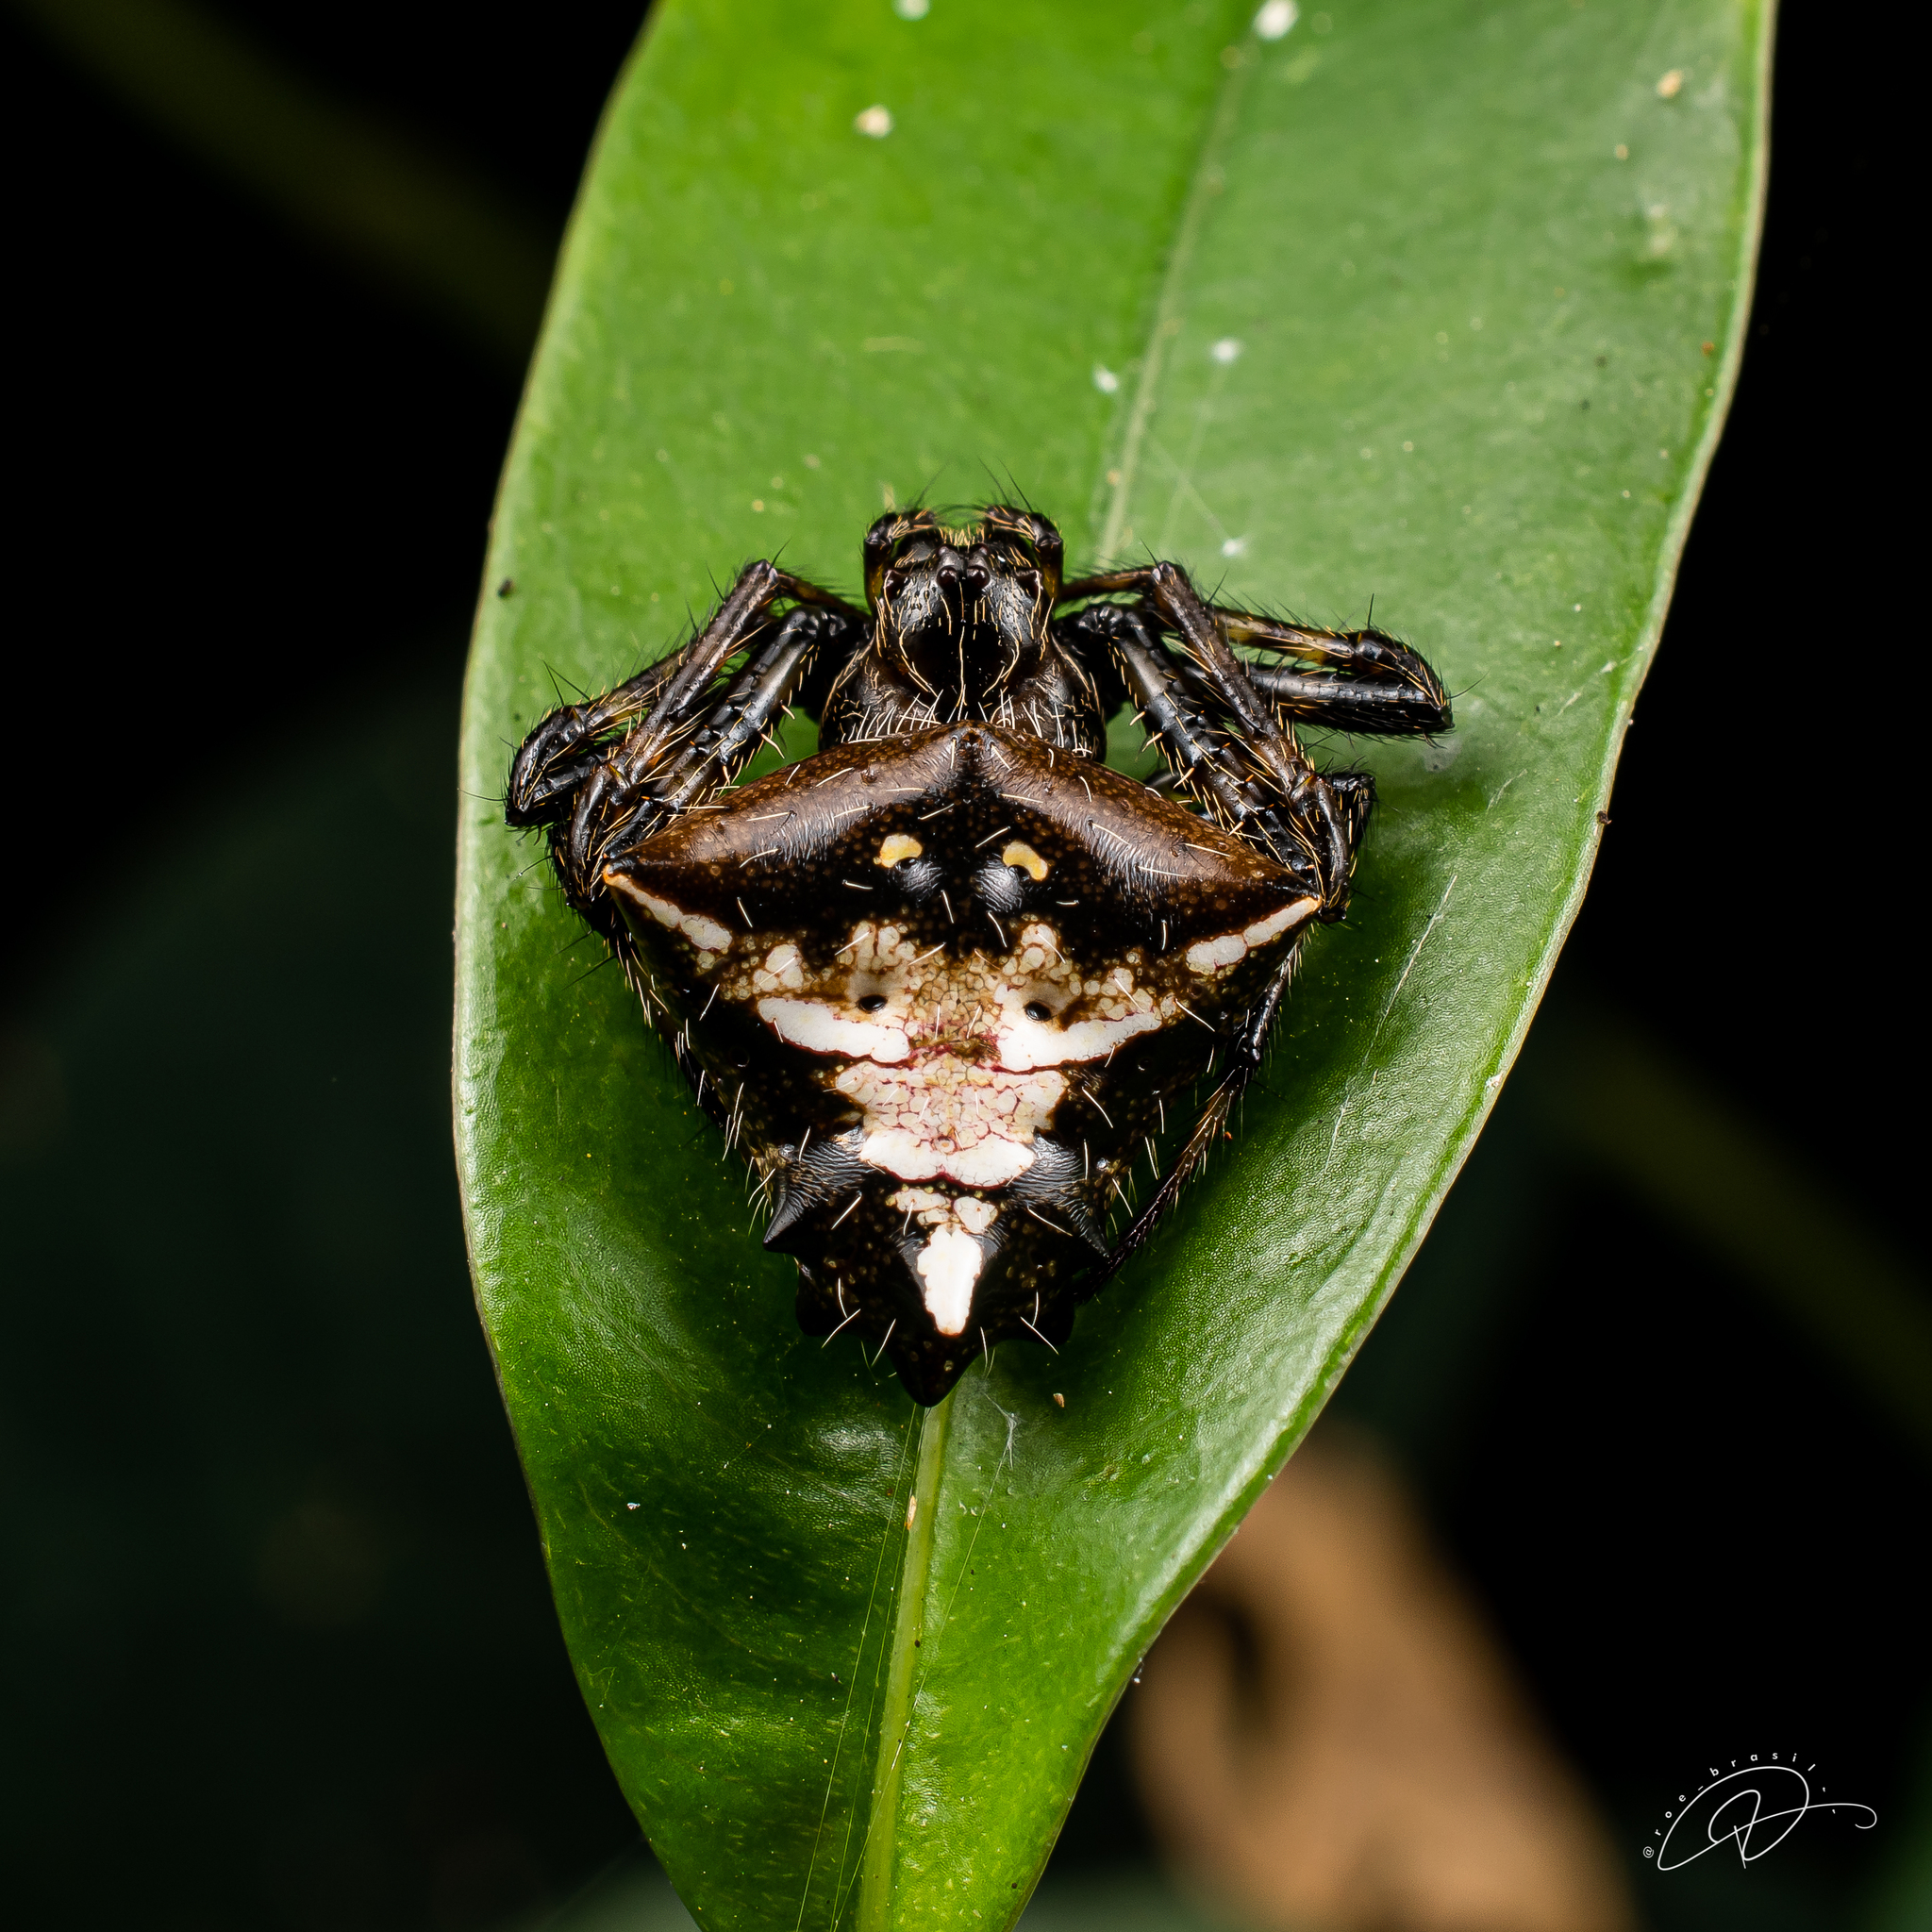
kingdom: Animalia
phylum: Arthropoda
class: Arachnida
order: Araneae
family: Araneidae
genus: Verrucosa
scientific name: Verrucosa meridionalis
